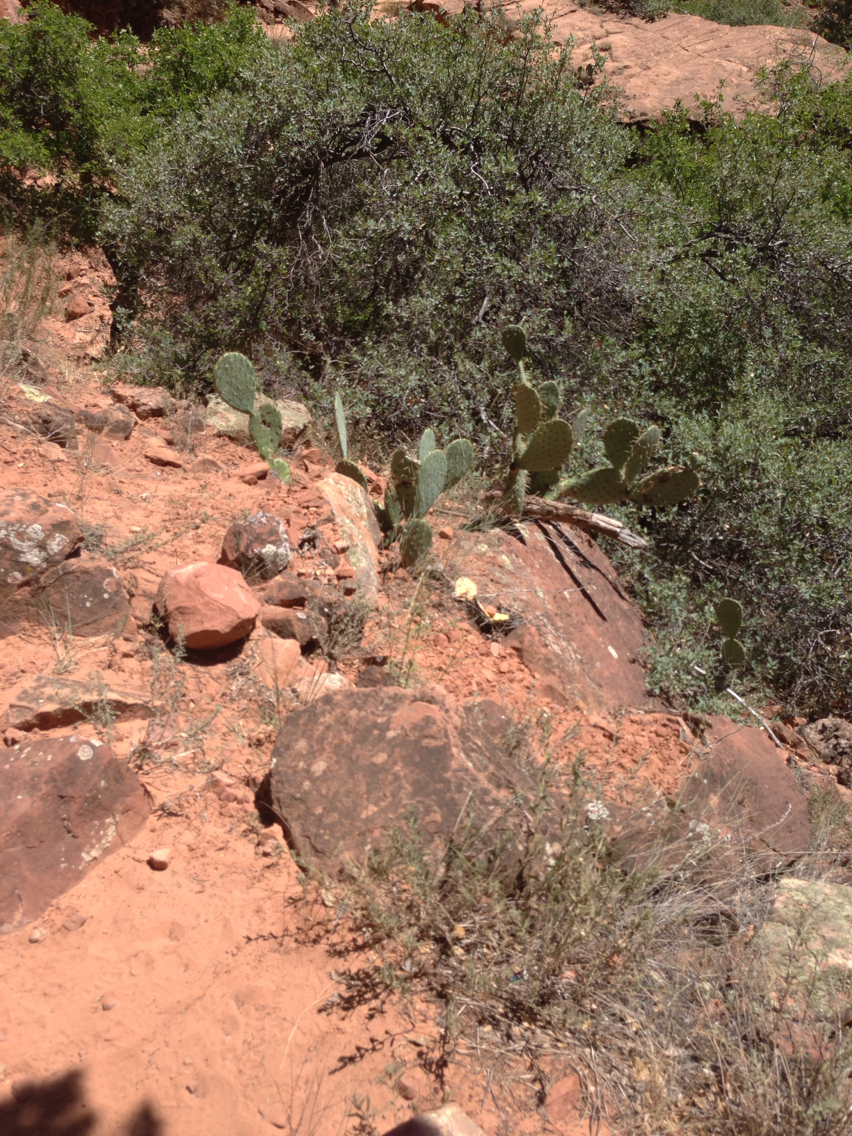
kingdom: Plantae
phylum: Tracheophyta
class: Magnoliopsida
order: Caryophyllales
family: Cactaceae
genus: Opuntia
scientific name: Opuntia engelmannii
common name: Cactus-apple
